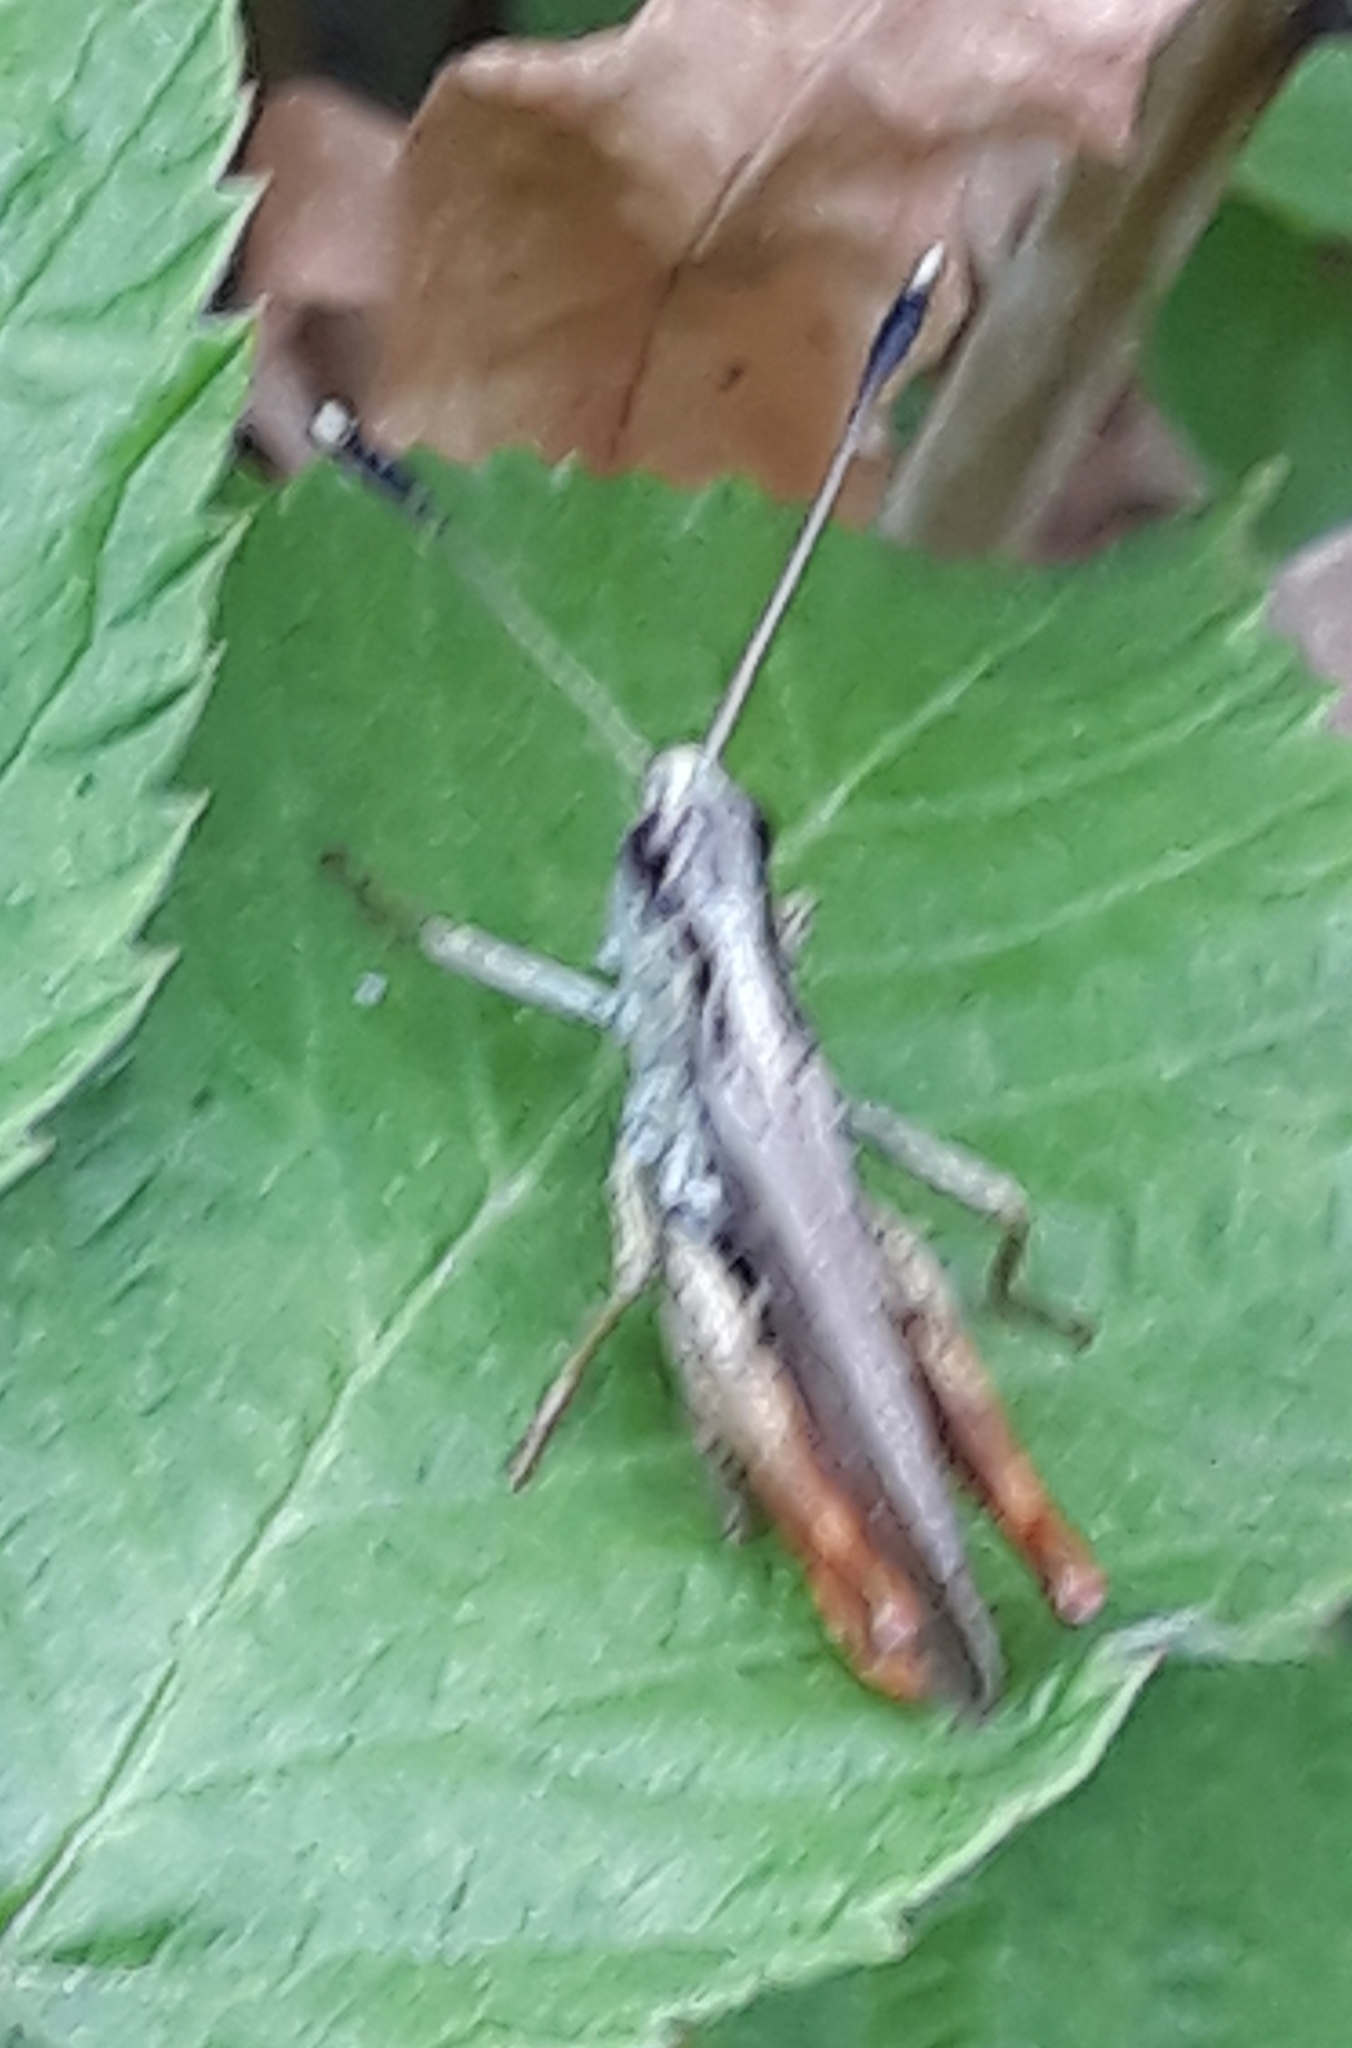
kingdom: Animalia
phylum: Arthropoda
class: Insecta
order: Orthoptera
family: Acrididae
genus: Gomphocerippus
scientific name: Gomphocerippus rufus
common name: Rufous grasshopper
